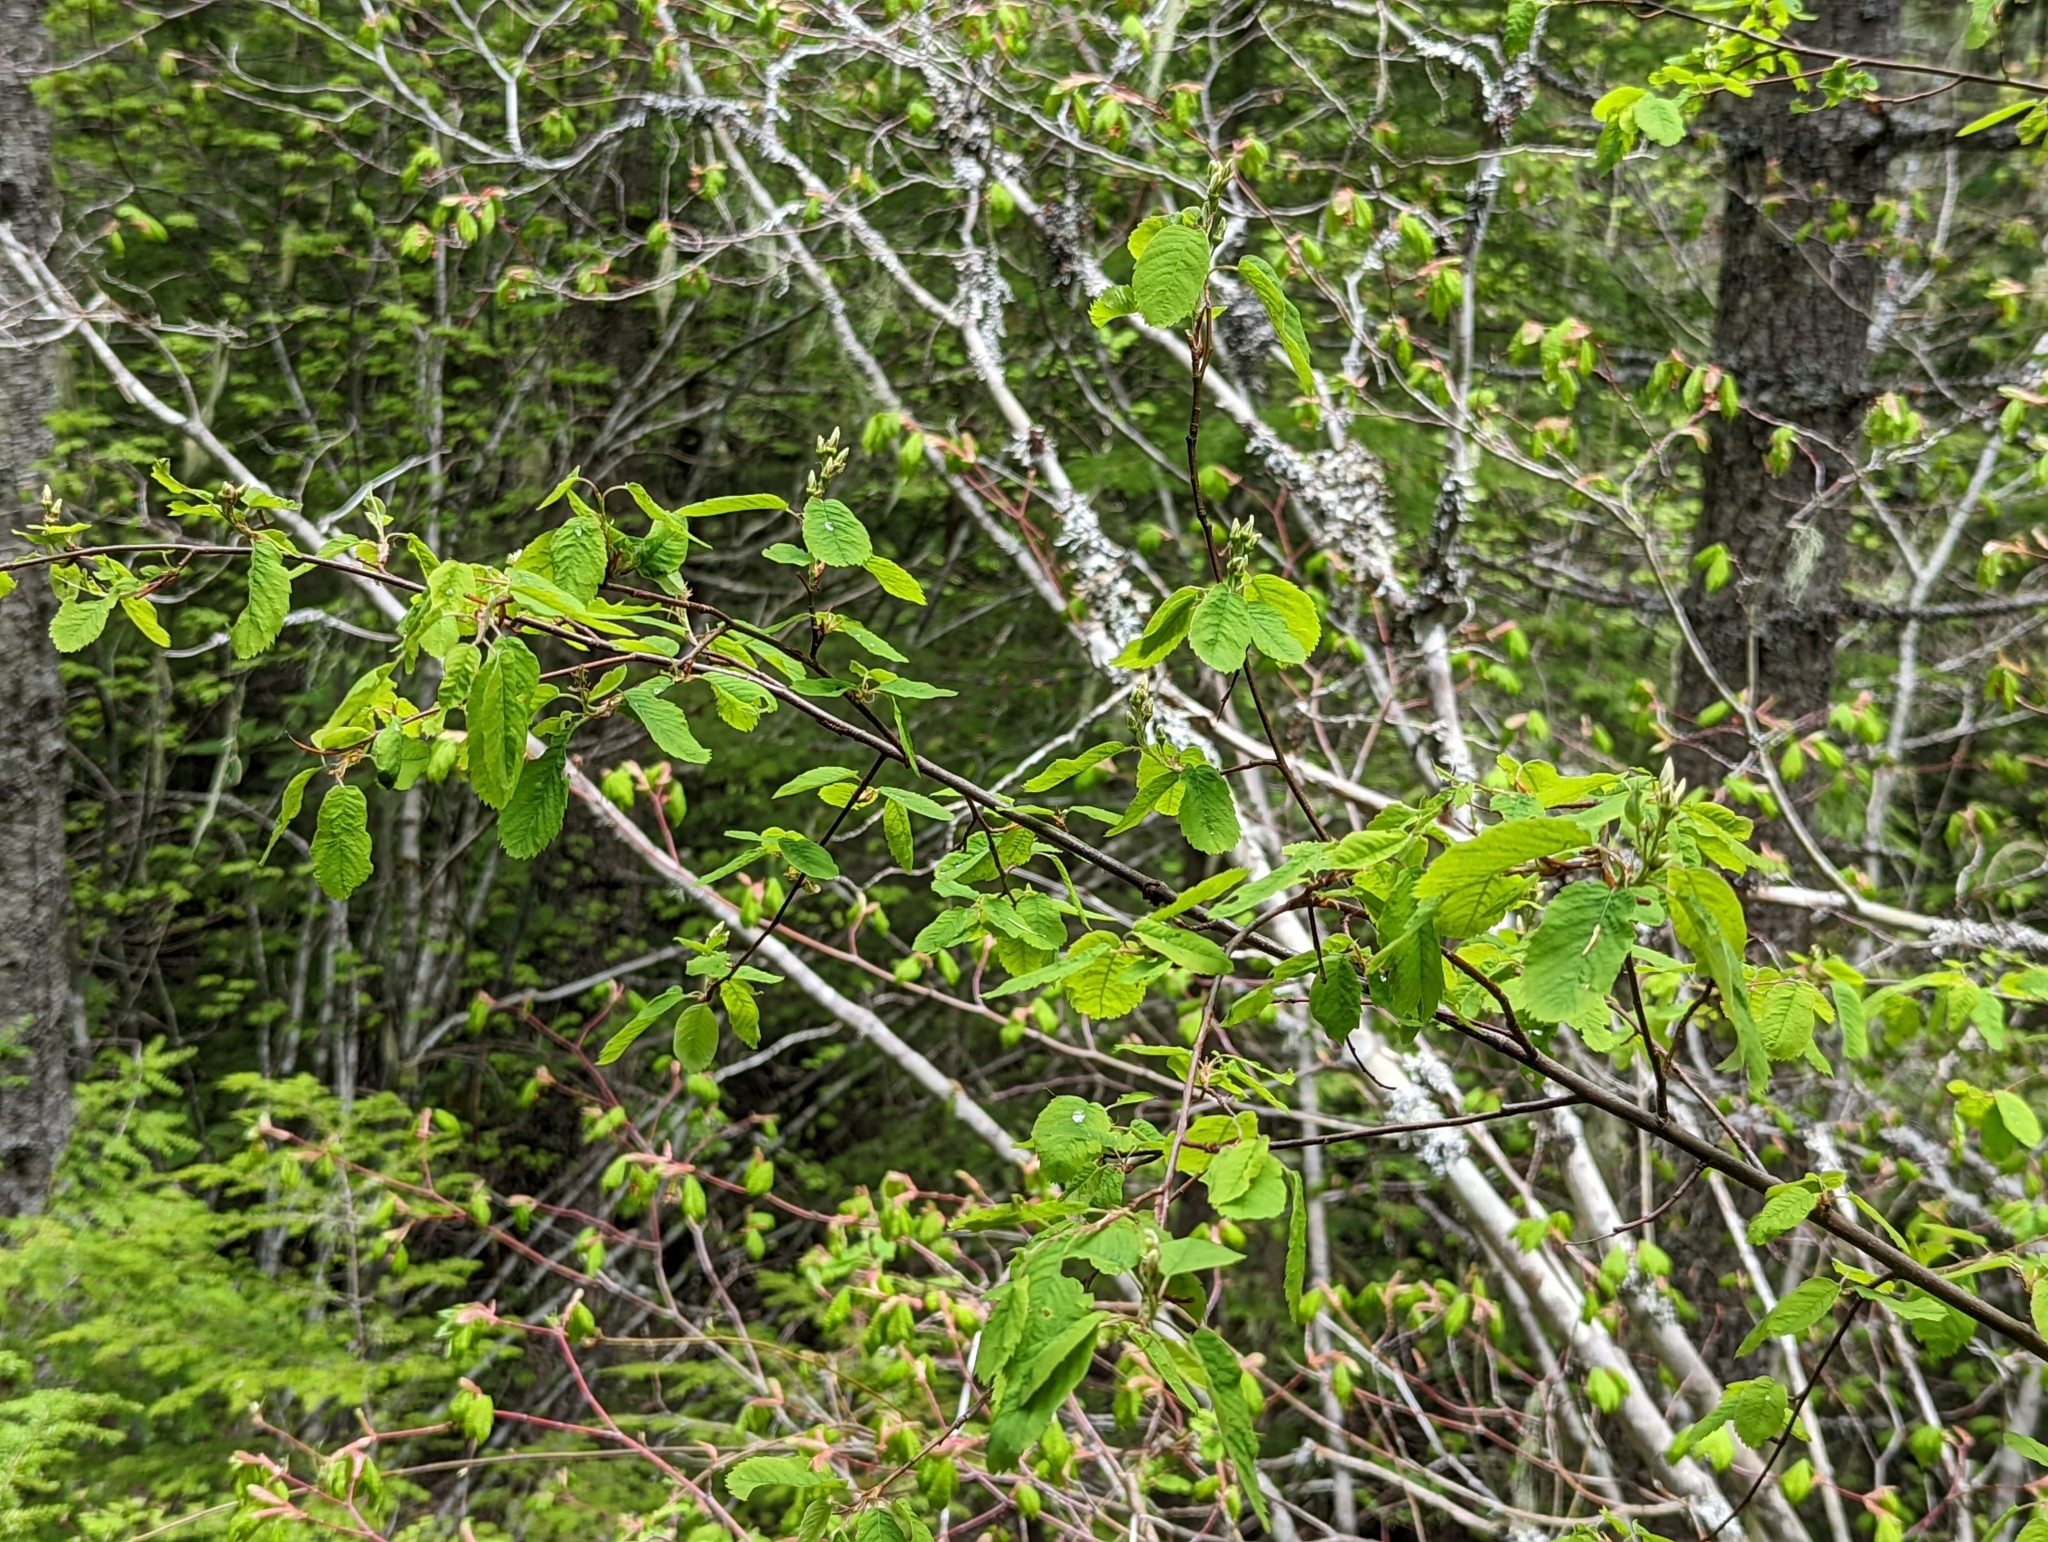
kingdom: Plantae
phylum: Tracheophyta
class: Magnoliopsida
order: Rosales
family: Rosaceae
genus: Amelanchier
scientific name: Amelanchier alnifolia
